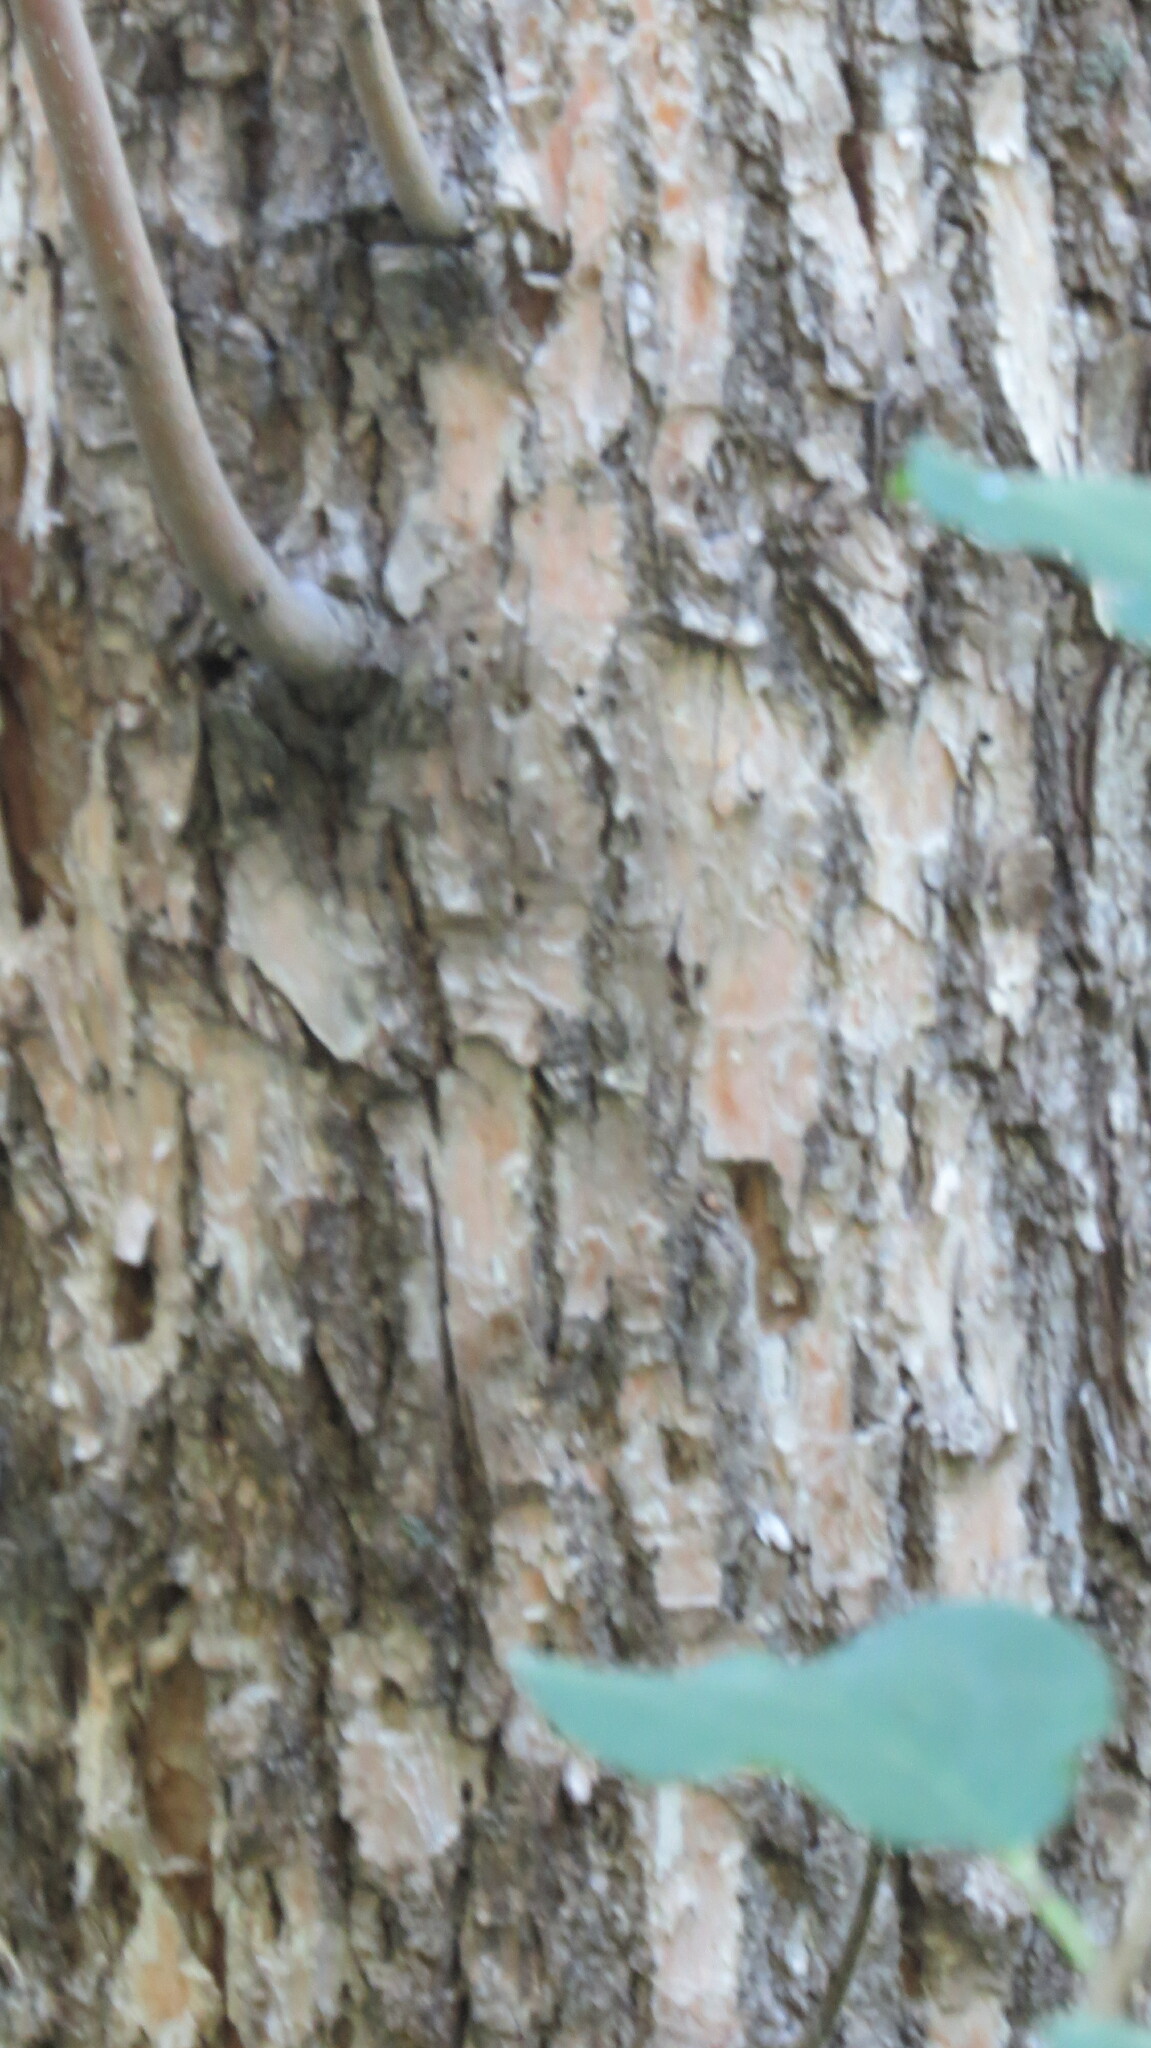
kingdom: Animalia
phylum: Arthropoda
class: Insecta
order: Coleoptera
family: Buprestidae
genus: Agrilus
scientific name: Agrilus planipennis
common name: Emerald ash borer
